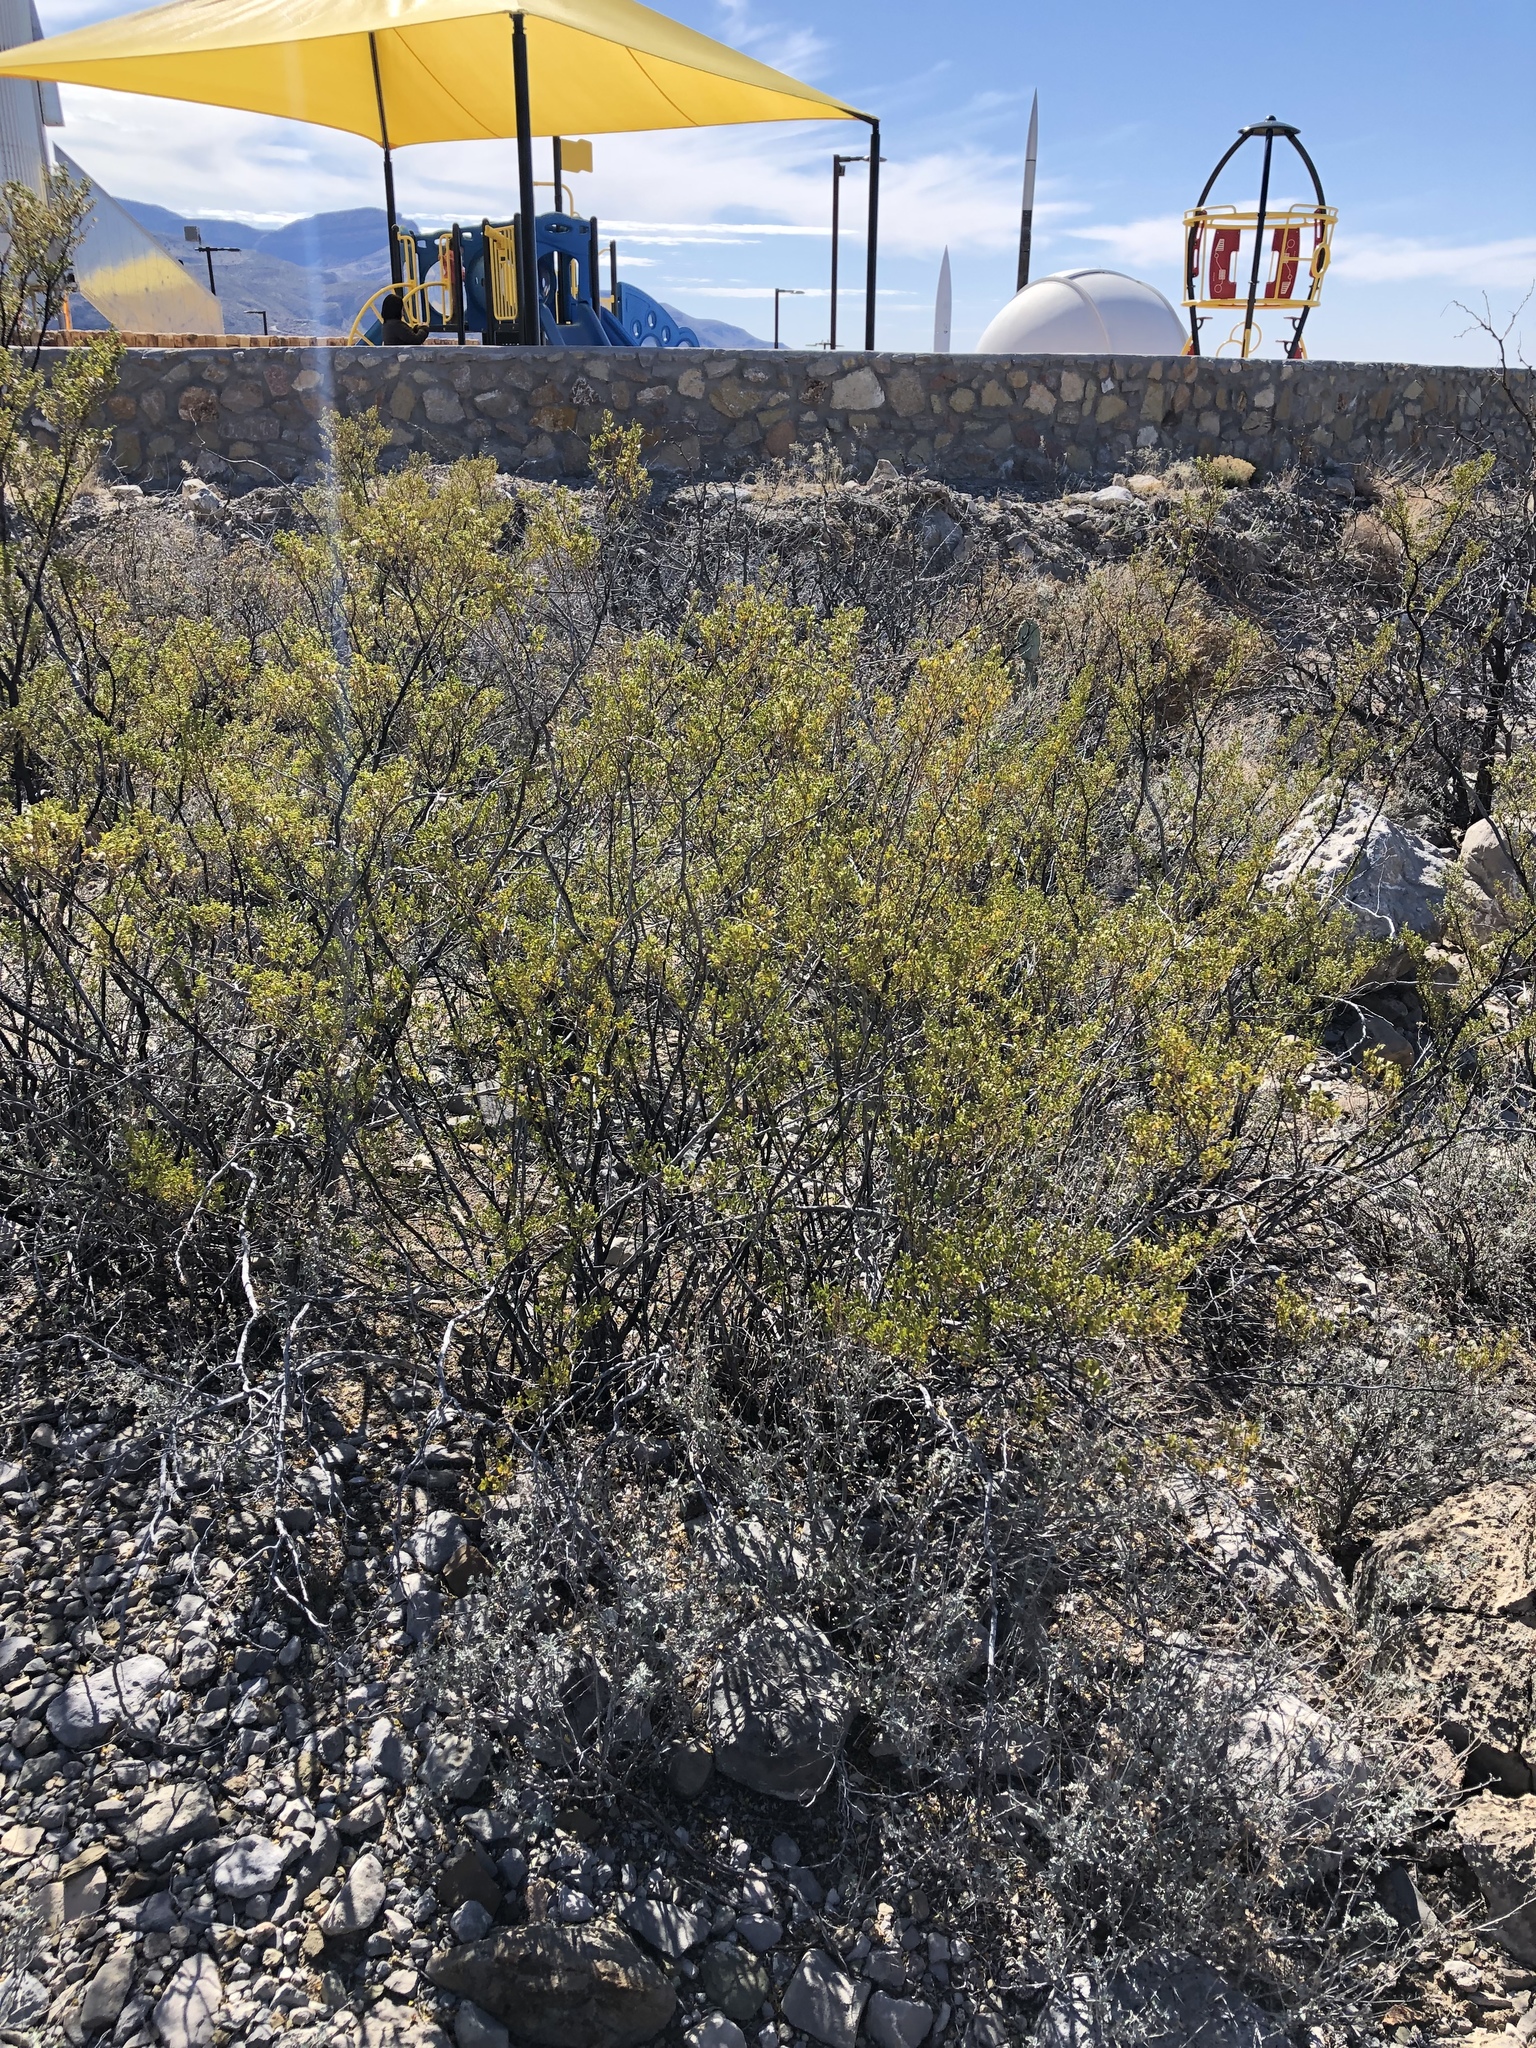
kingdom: Plantae
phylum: Tracheophyta
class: Magnoliopsida
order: Zygophyllales
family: Zygophyllaceae
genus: Larrea
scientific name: Larrea tridentata
